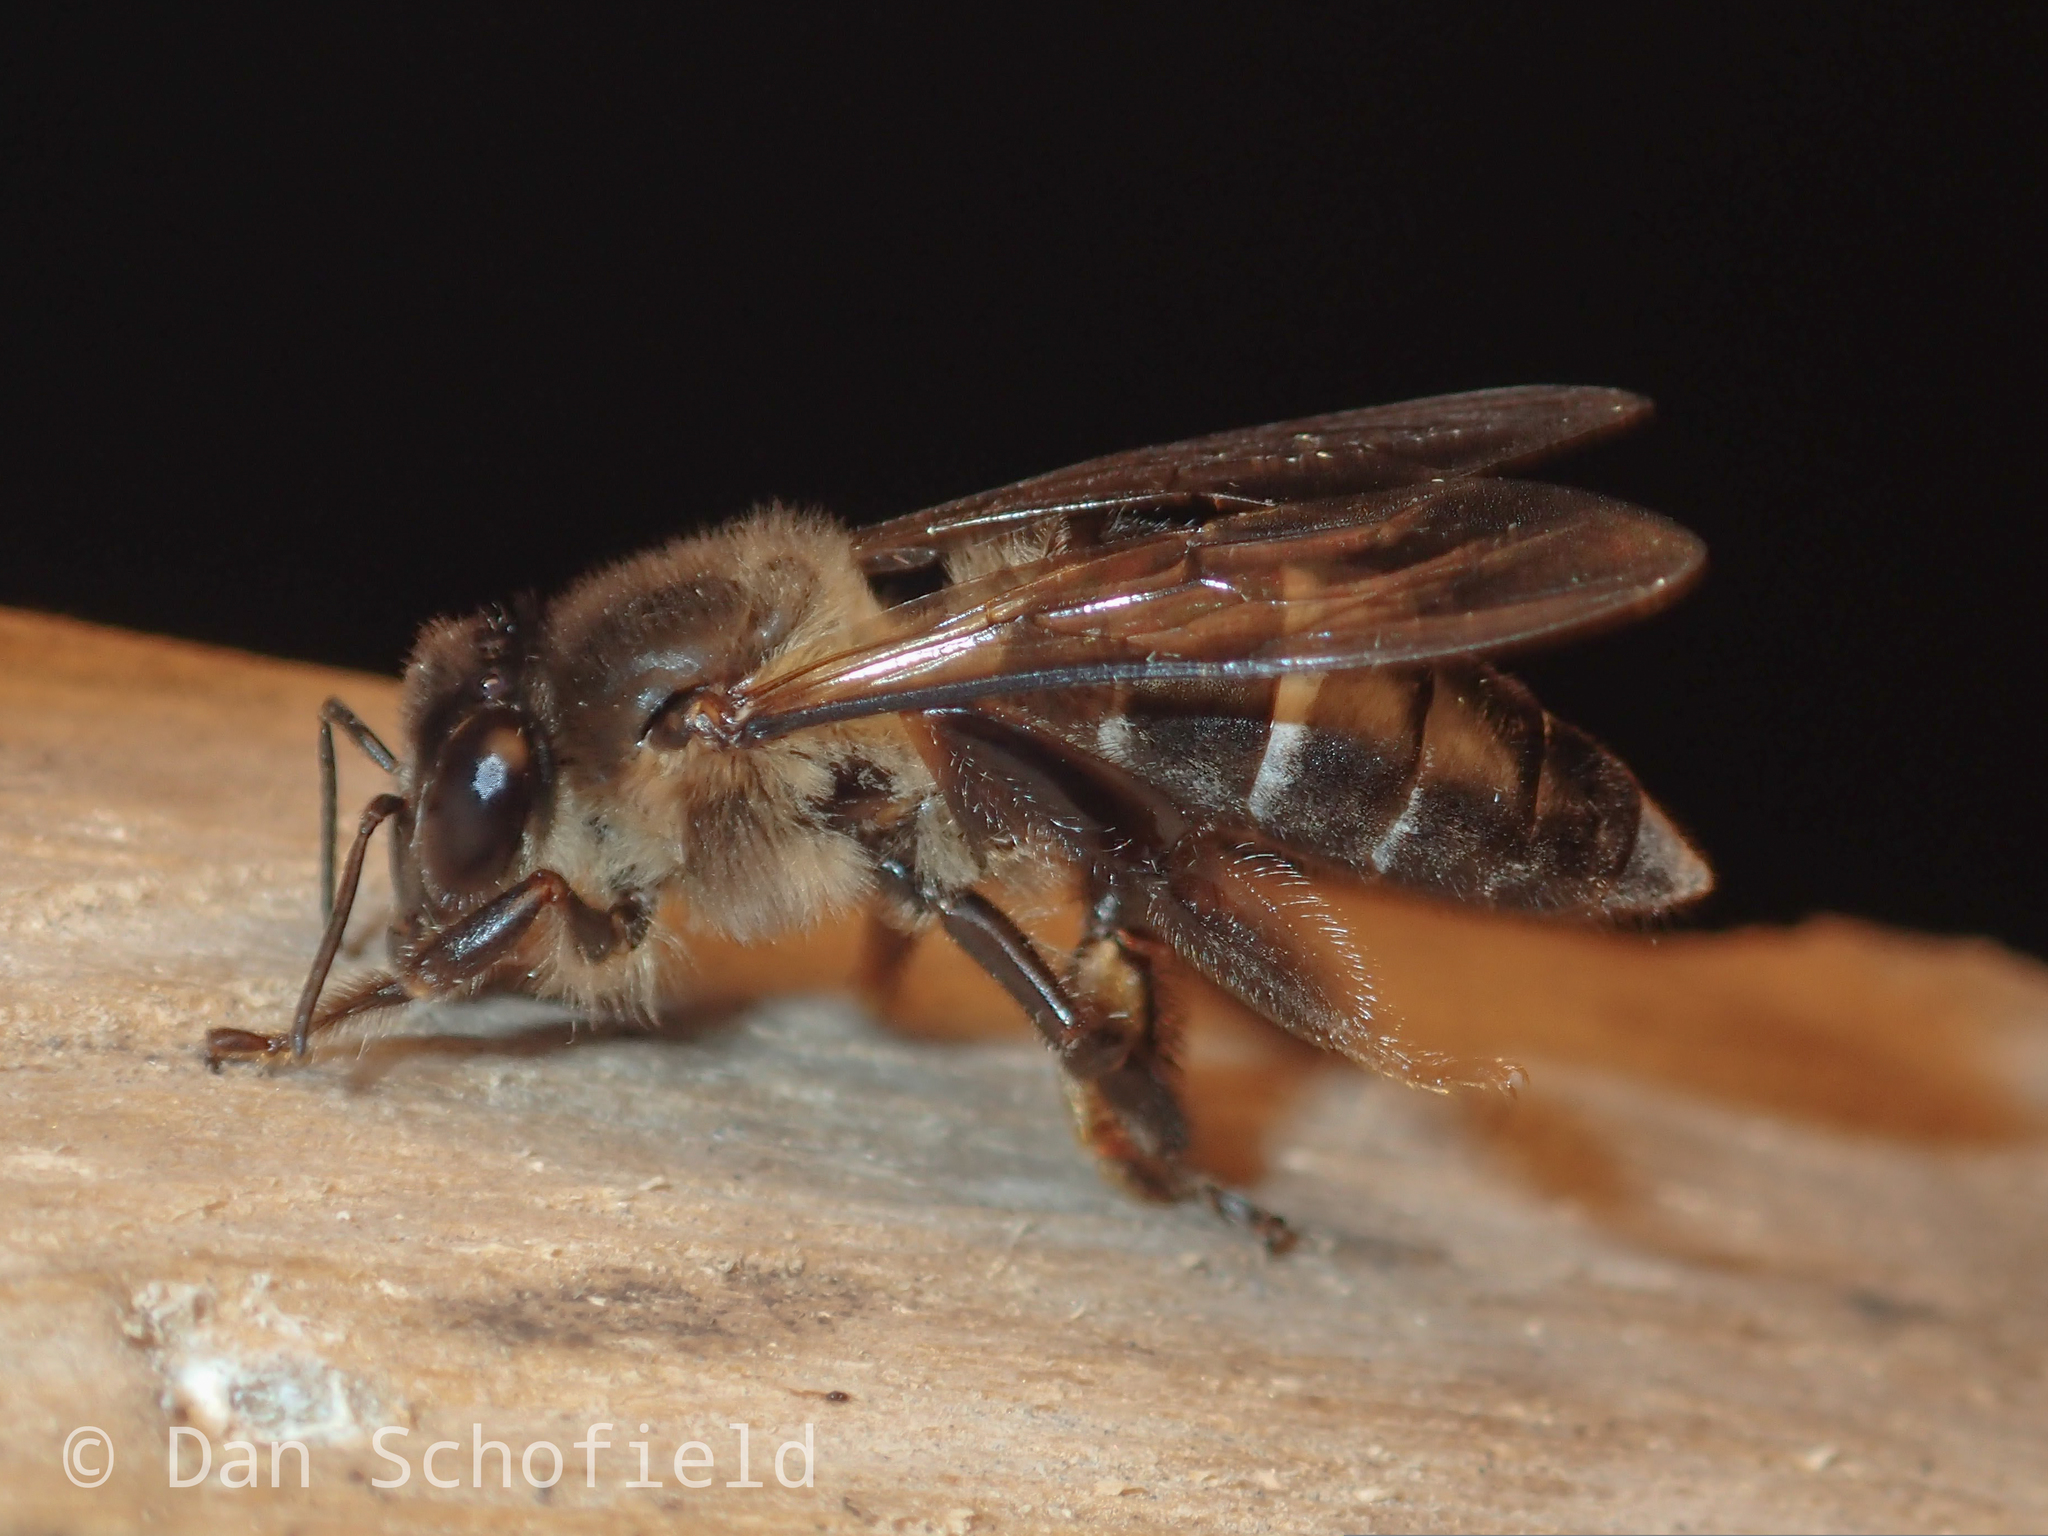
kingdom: Animalia
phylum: Arthropoda
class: Insecta
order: Hymenoptera
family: Apidae
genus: Apis
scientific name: Apis dorsata
